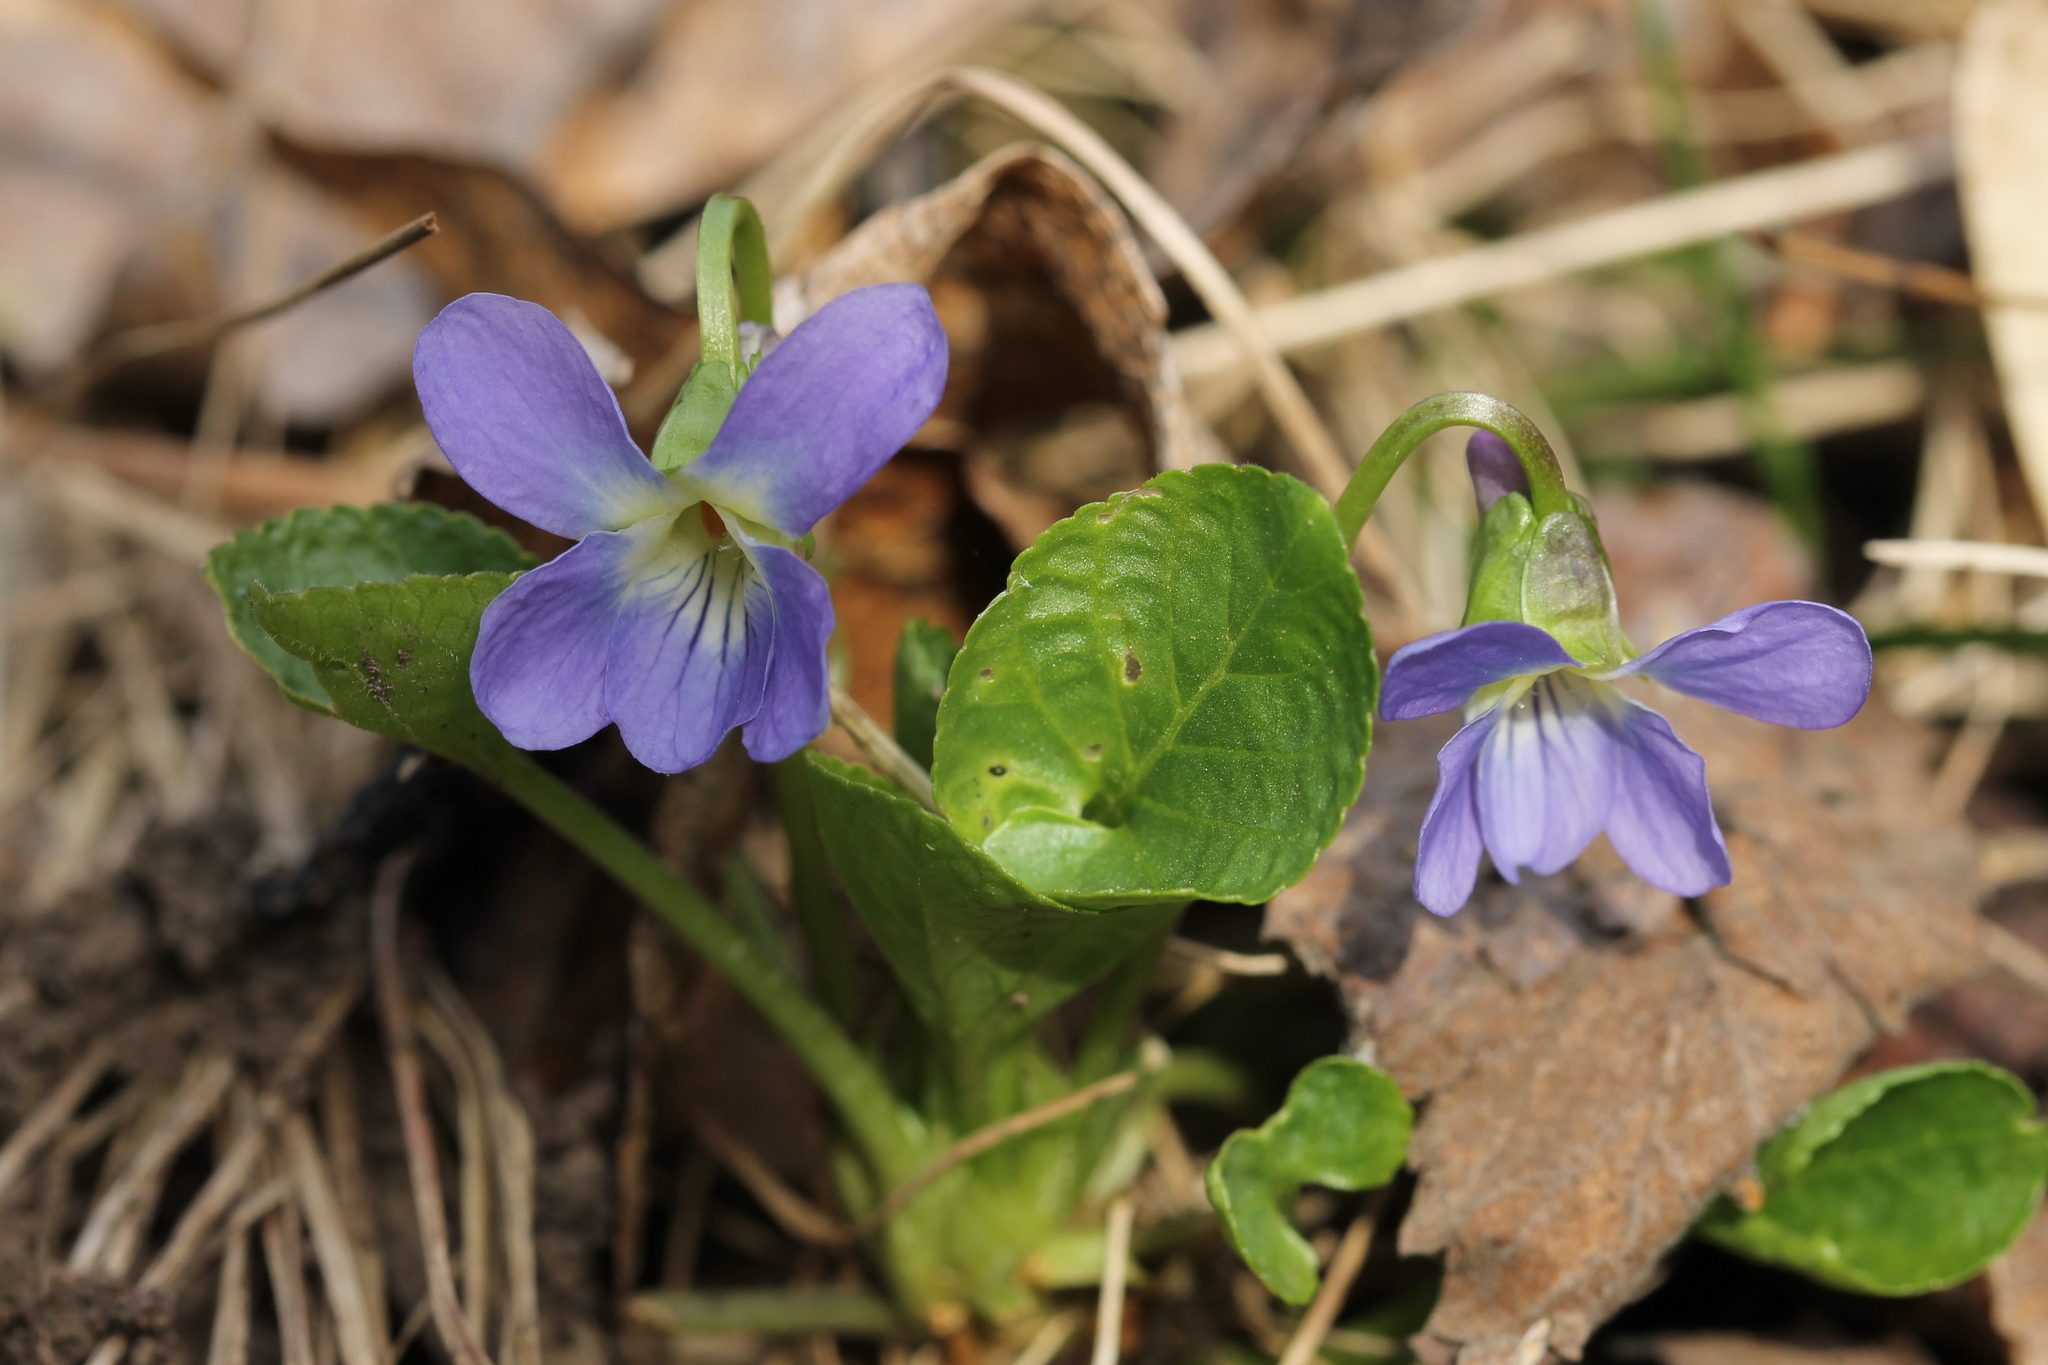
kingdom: Plantae
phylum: Tracheophyta
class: Magnoliopsida
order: Malpighiales
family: Violaceae
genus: Viola
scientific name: Viola suavis
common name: Russian violet
